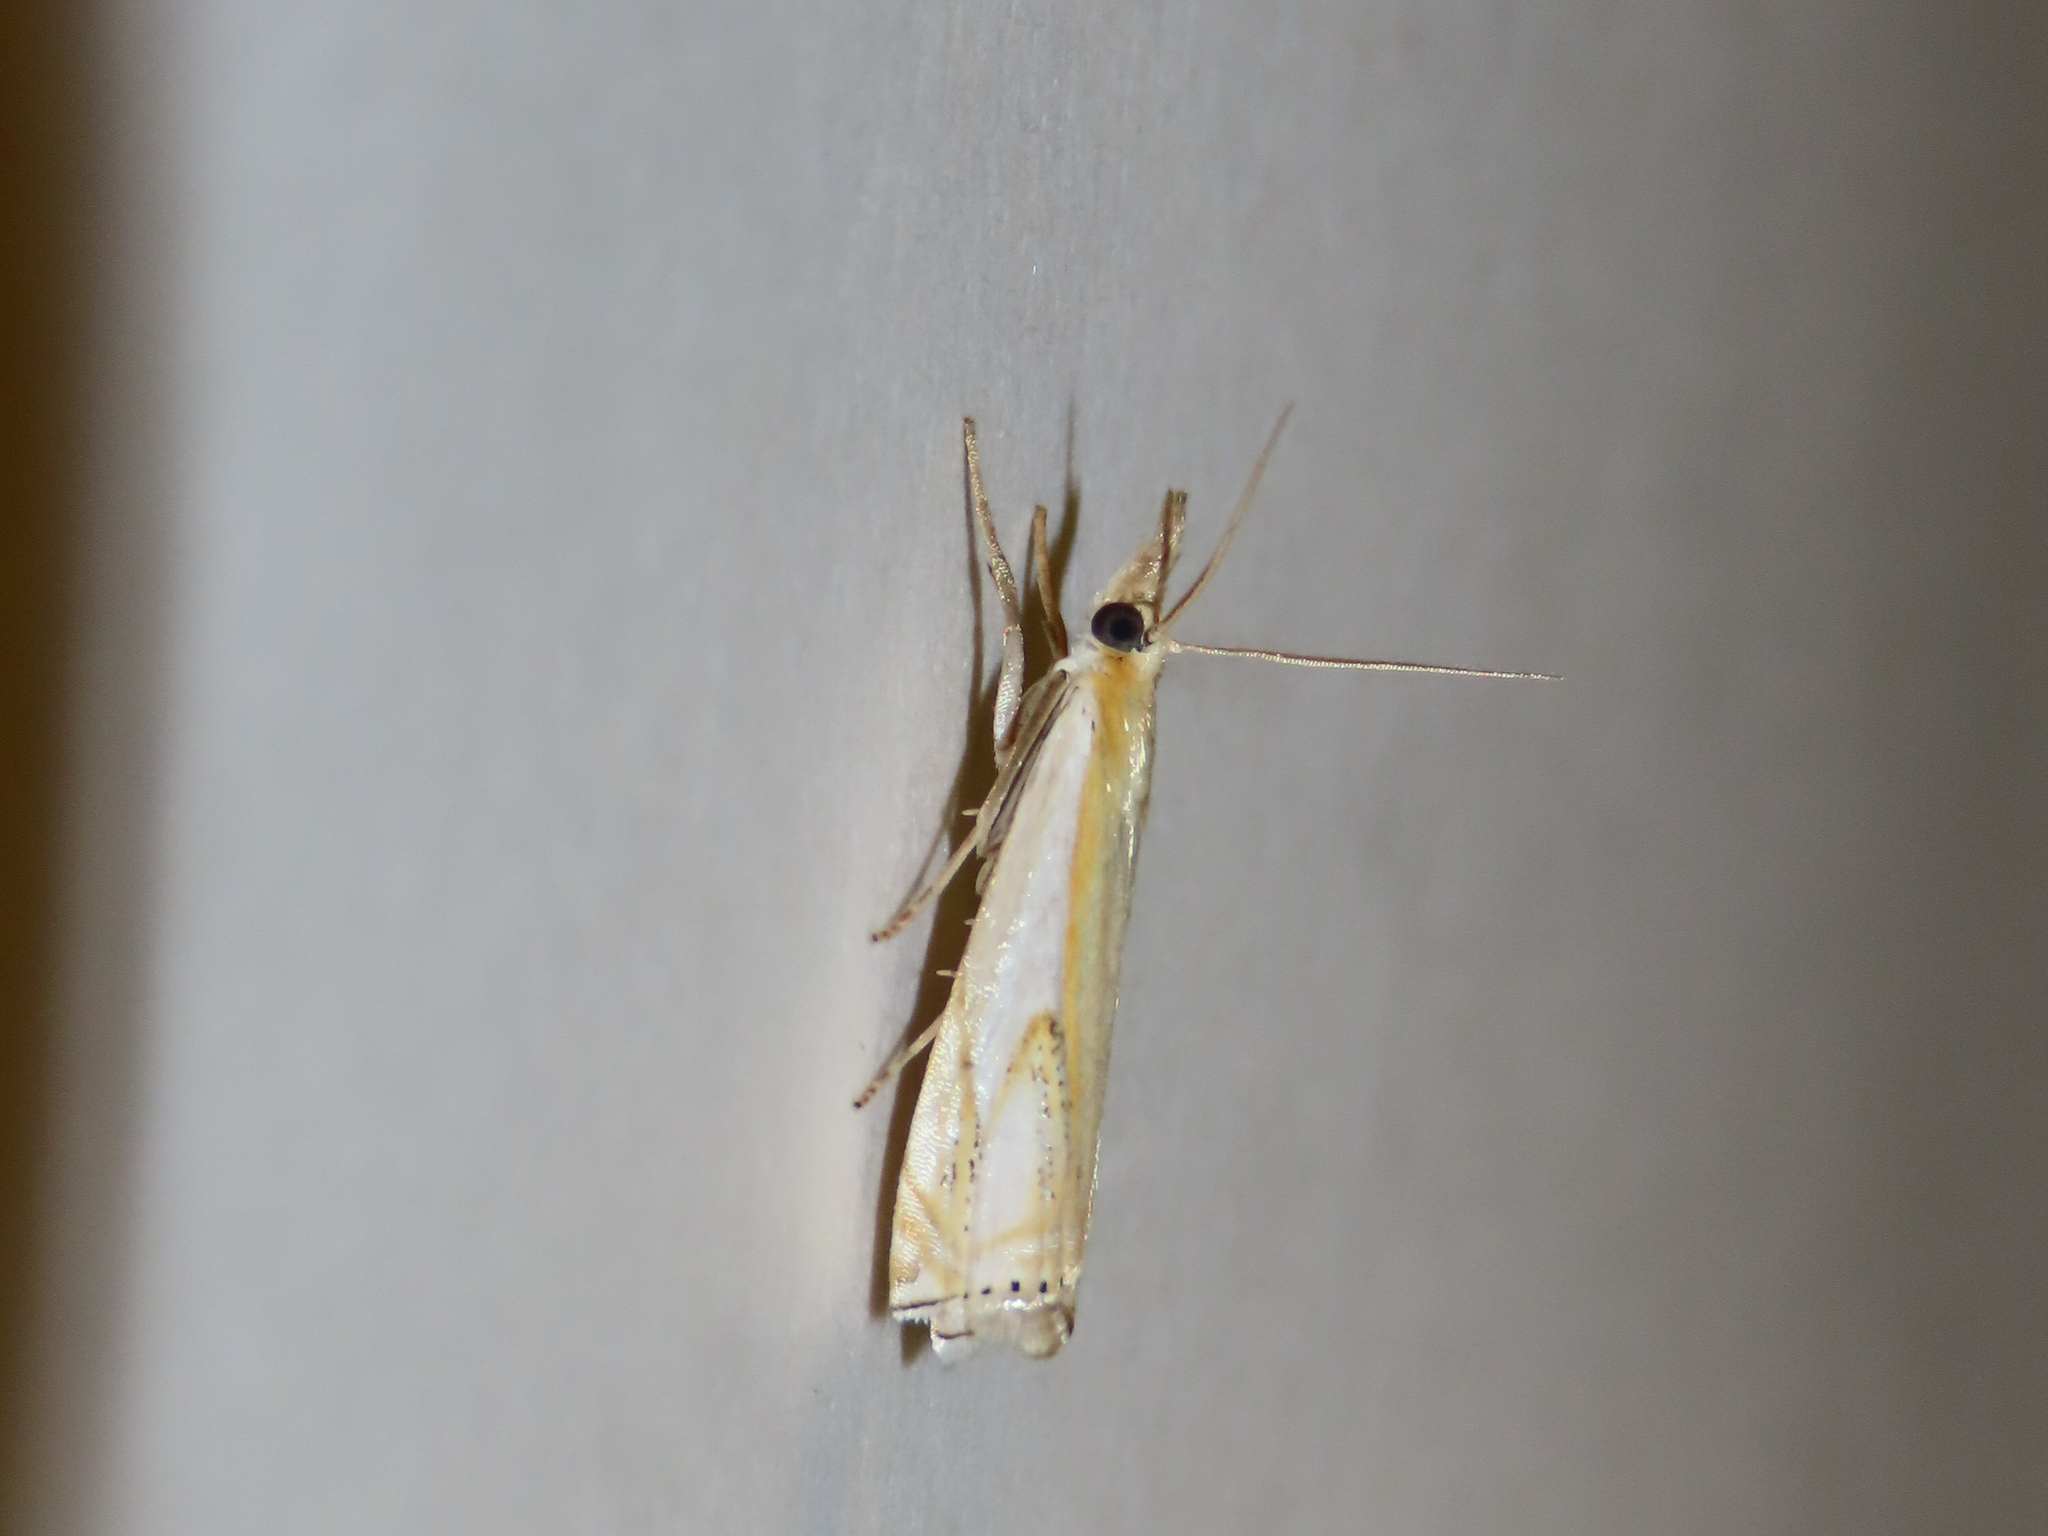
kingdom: Animalia
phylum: Arthropoda
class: Insecta
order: Lepidoptera
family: Crambidae
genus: Crambus
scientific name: Crambus agitatellus
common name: Double-banded grass-veneer
